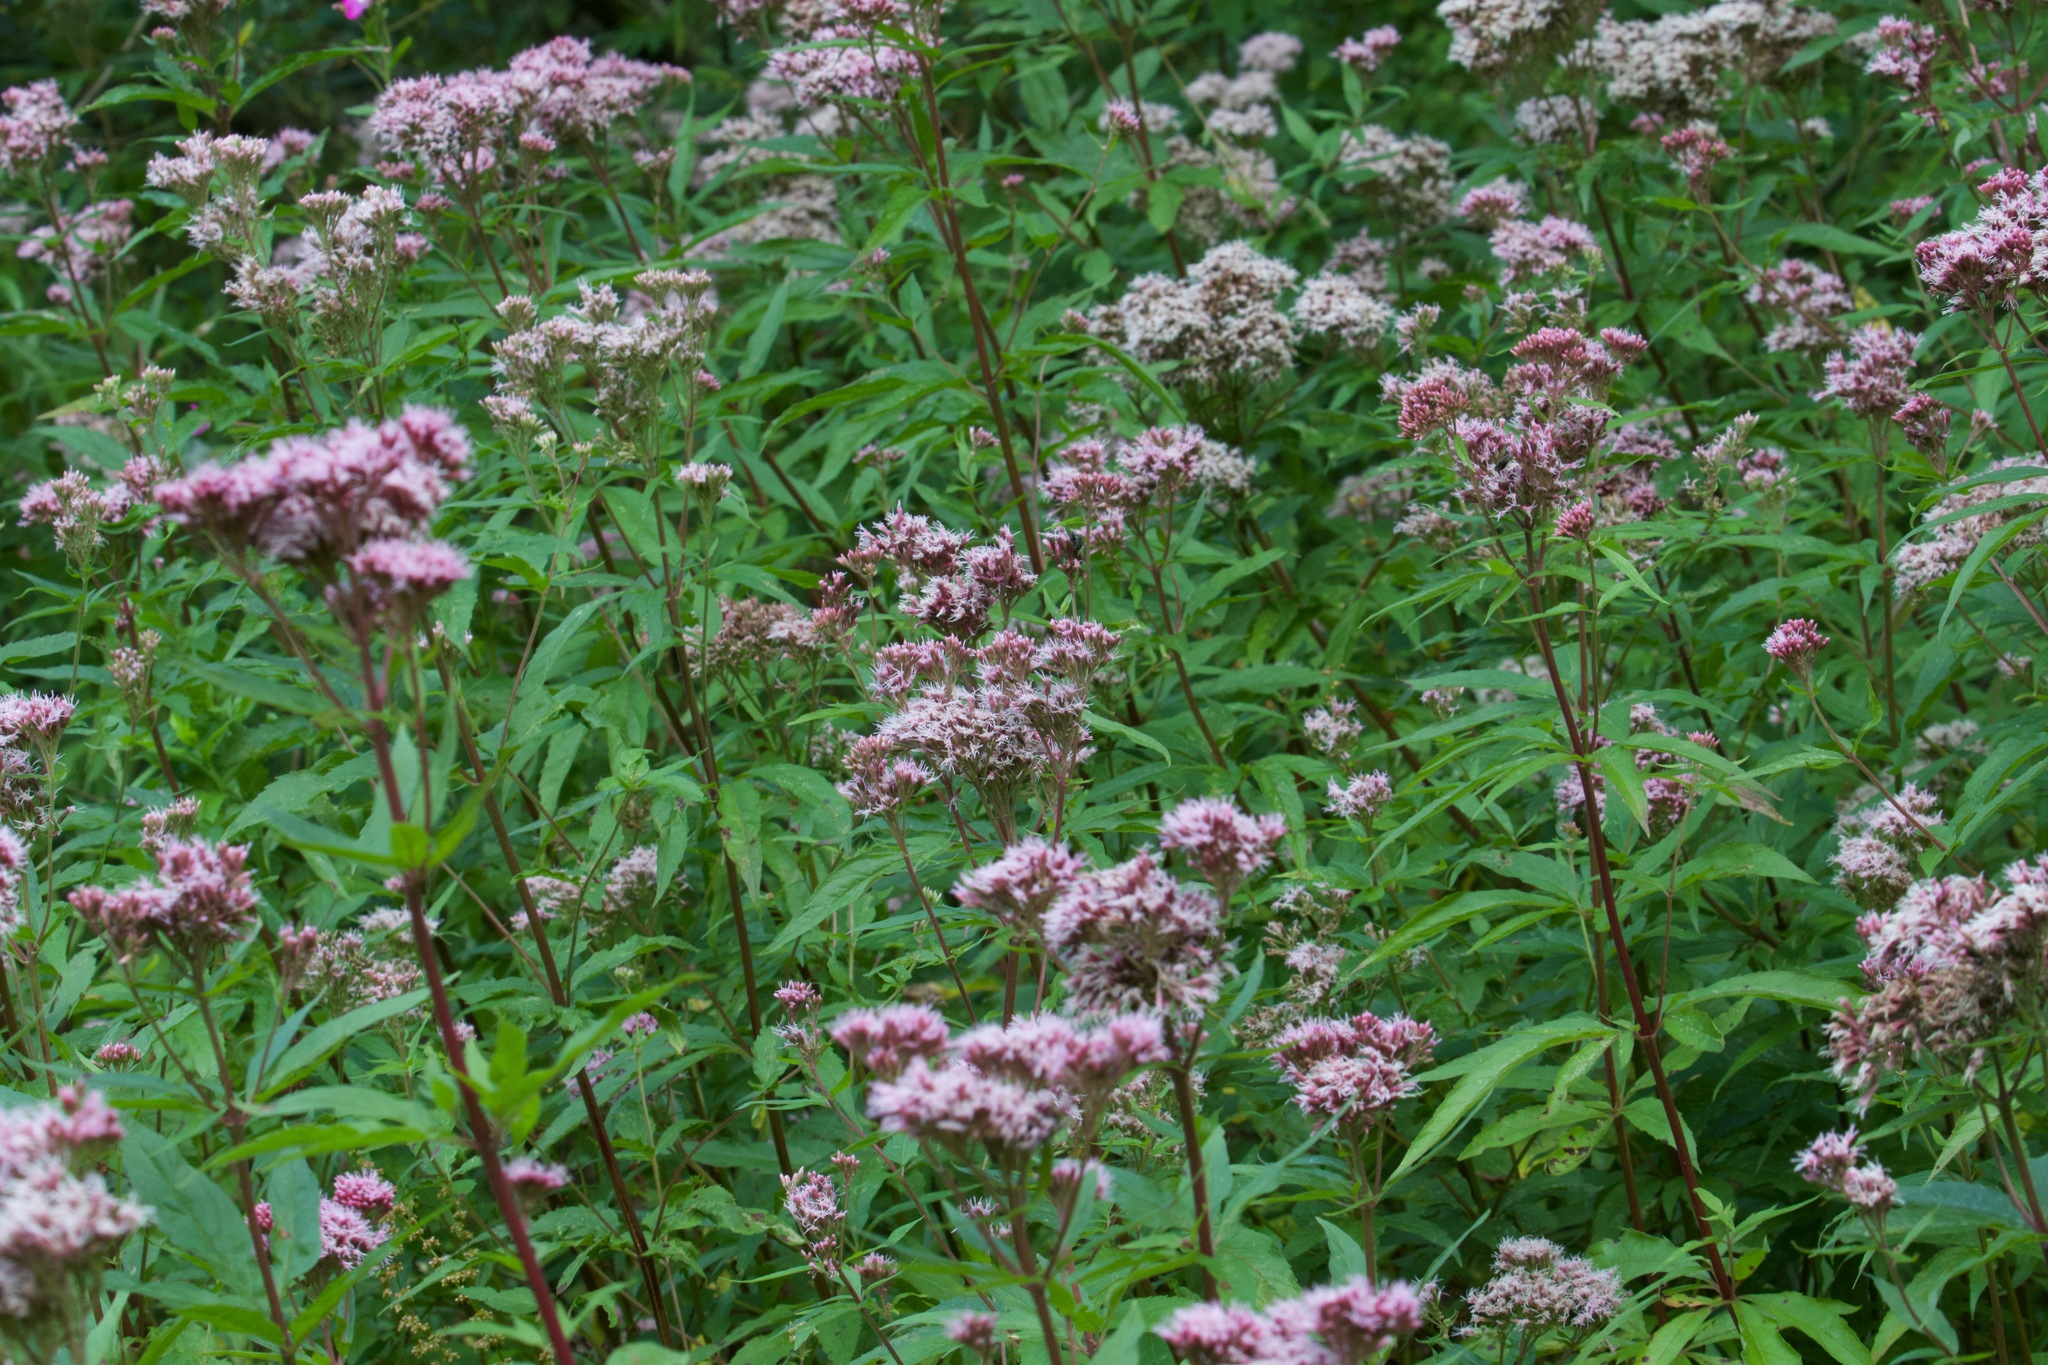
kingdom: Plantae
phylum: Tracheophyta
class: Magnoliopsida
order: Asterales
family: Asteraceae
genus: Eupatorium
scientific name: Eupatorium cannabinum
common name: Hemp-agrimony
